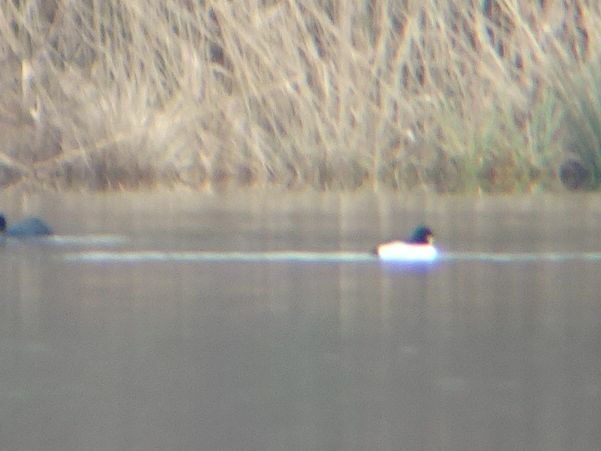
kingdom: Animalia
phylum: Chordata
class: Aves
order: Anseriformes
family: Anatidae
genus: Bucephala
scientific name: Bucephala clangula
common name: Common goldeneye
